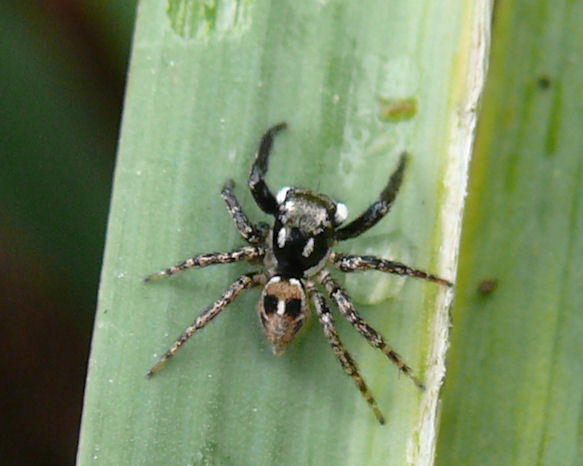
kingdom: Animalia
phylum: Arthropoda
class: Arachnida
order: Araneae
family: Salticidae
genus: Anasaitis
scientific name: Anasaitis canosa
